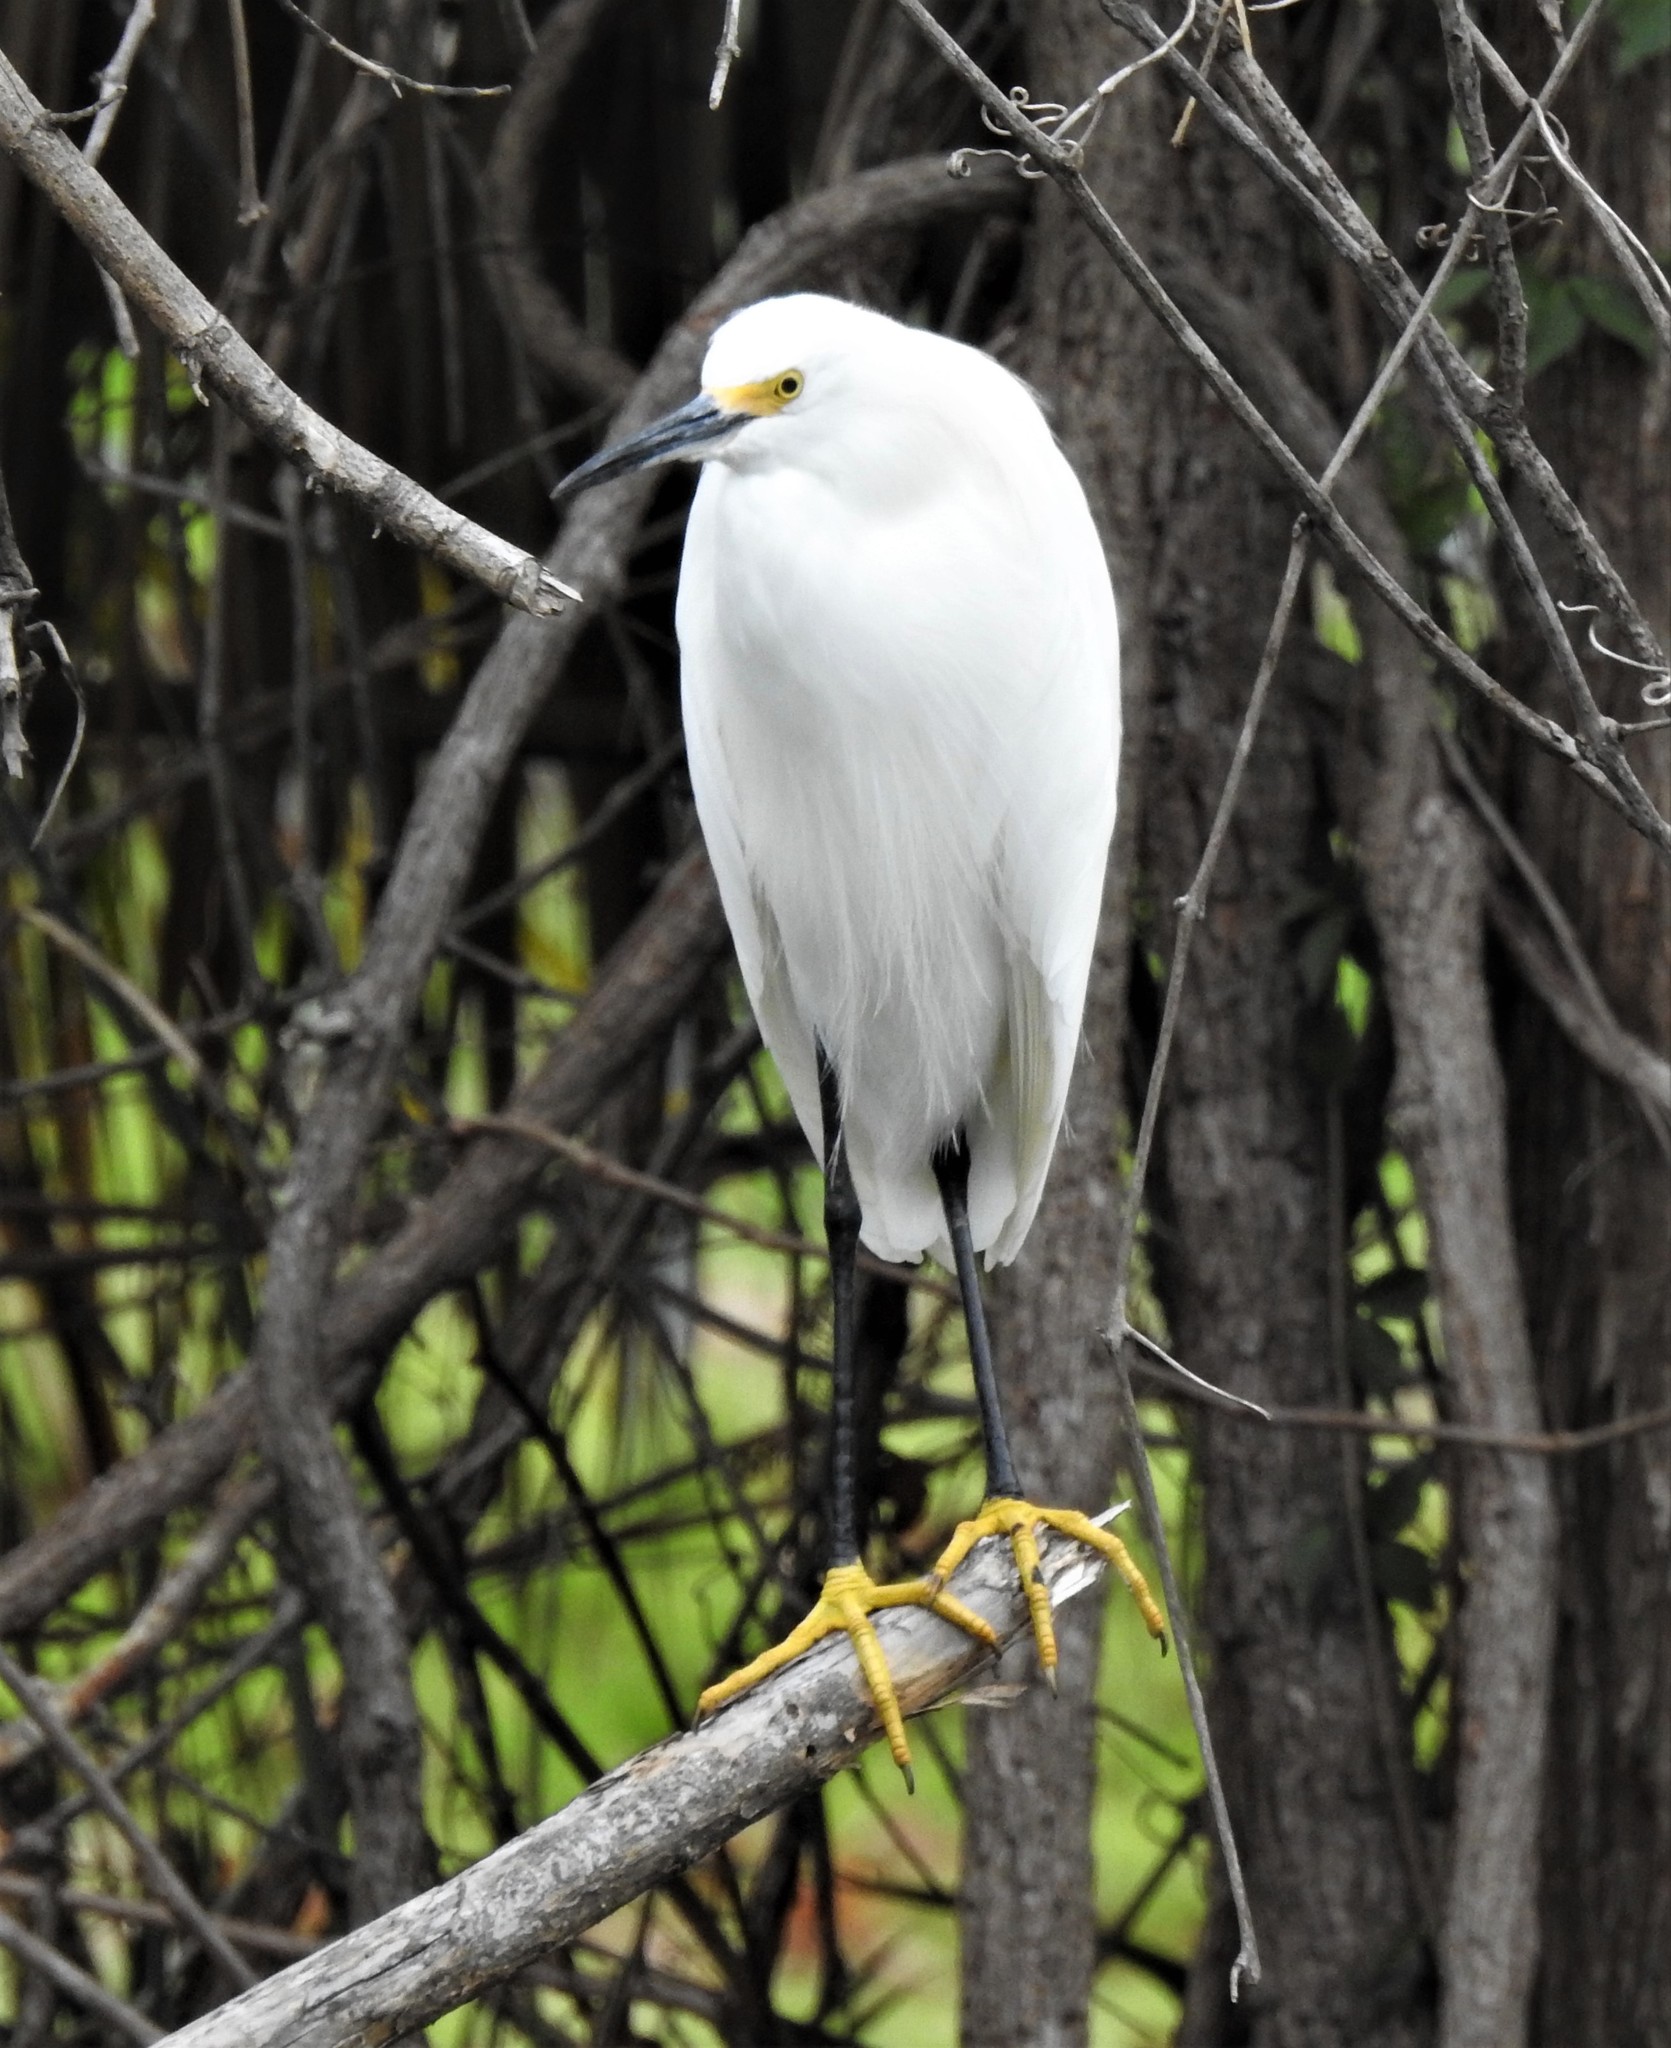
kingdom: Animalia
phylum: Chordata
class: Aves
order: Pelecaniformes
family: Ardeidae
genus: Egretta
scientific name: Egretta thula
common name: Snowy egret
